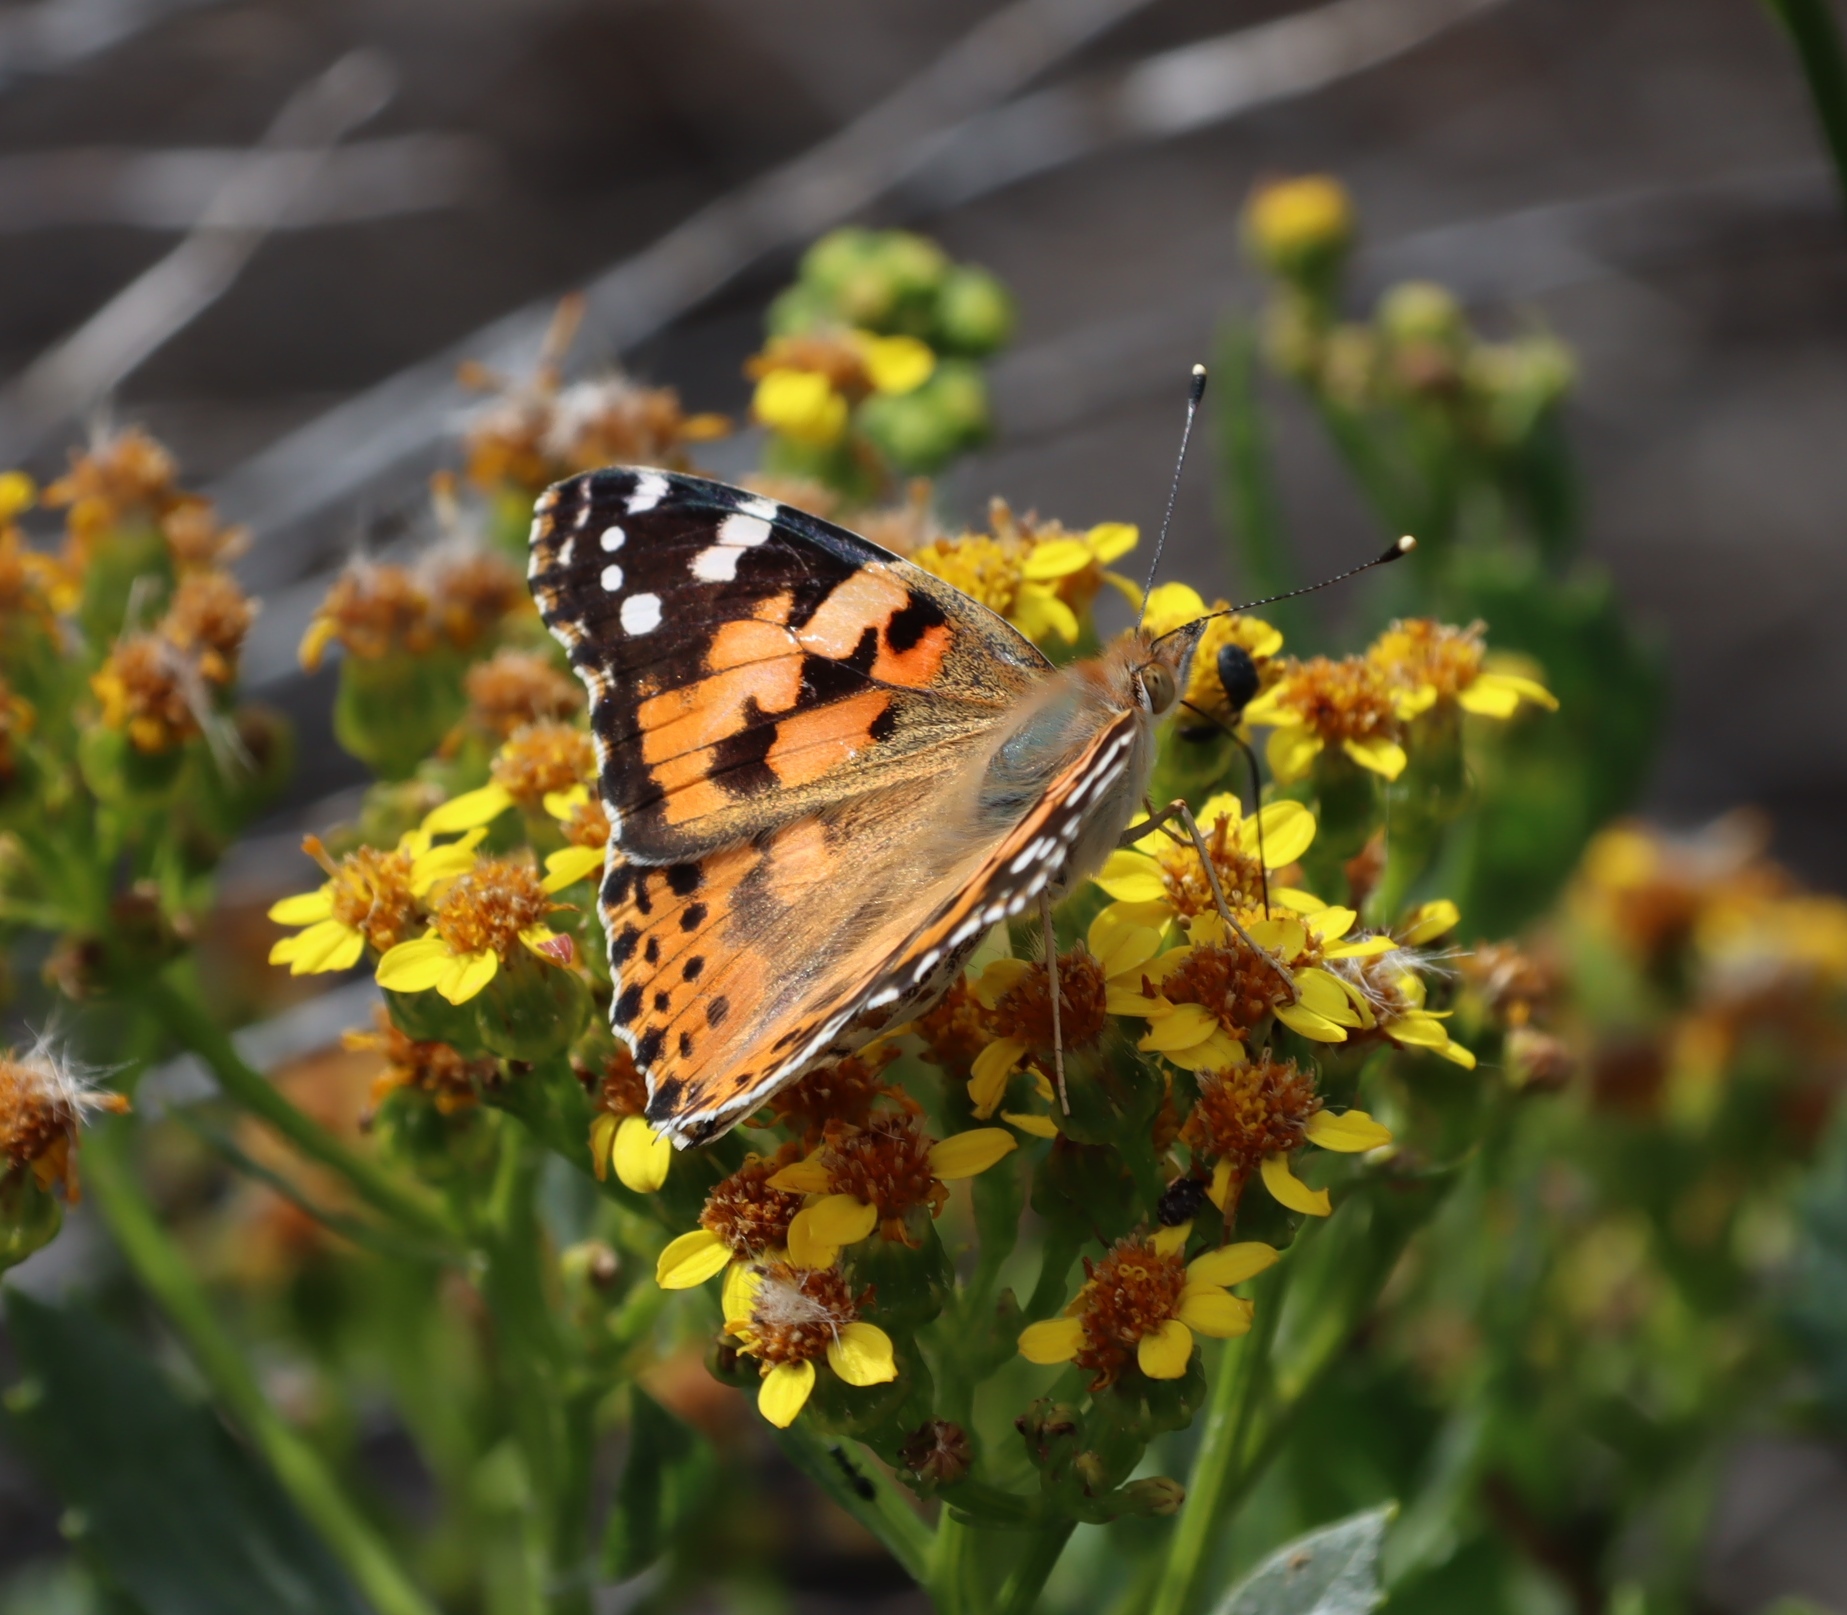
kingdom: Plantae
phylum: Tracheophyta
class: Magnoliopsida
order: Asterales
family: Asteraceae
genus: Senecio
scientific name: Senecio halimifolius
